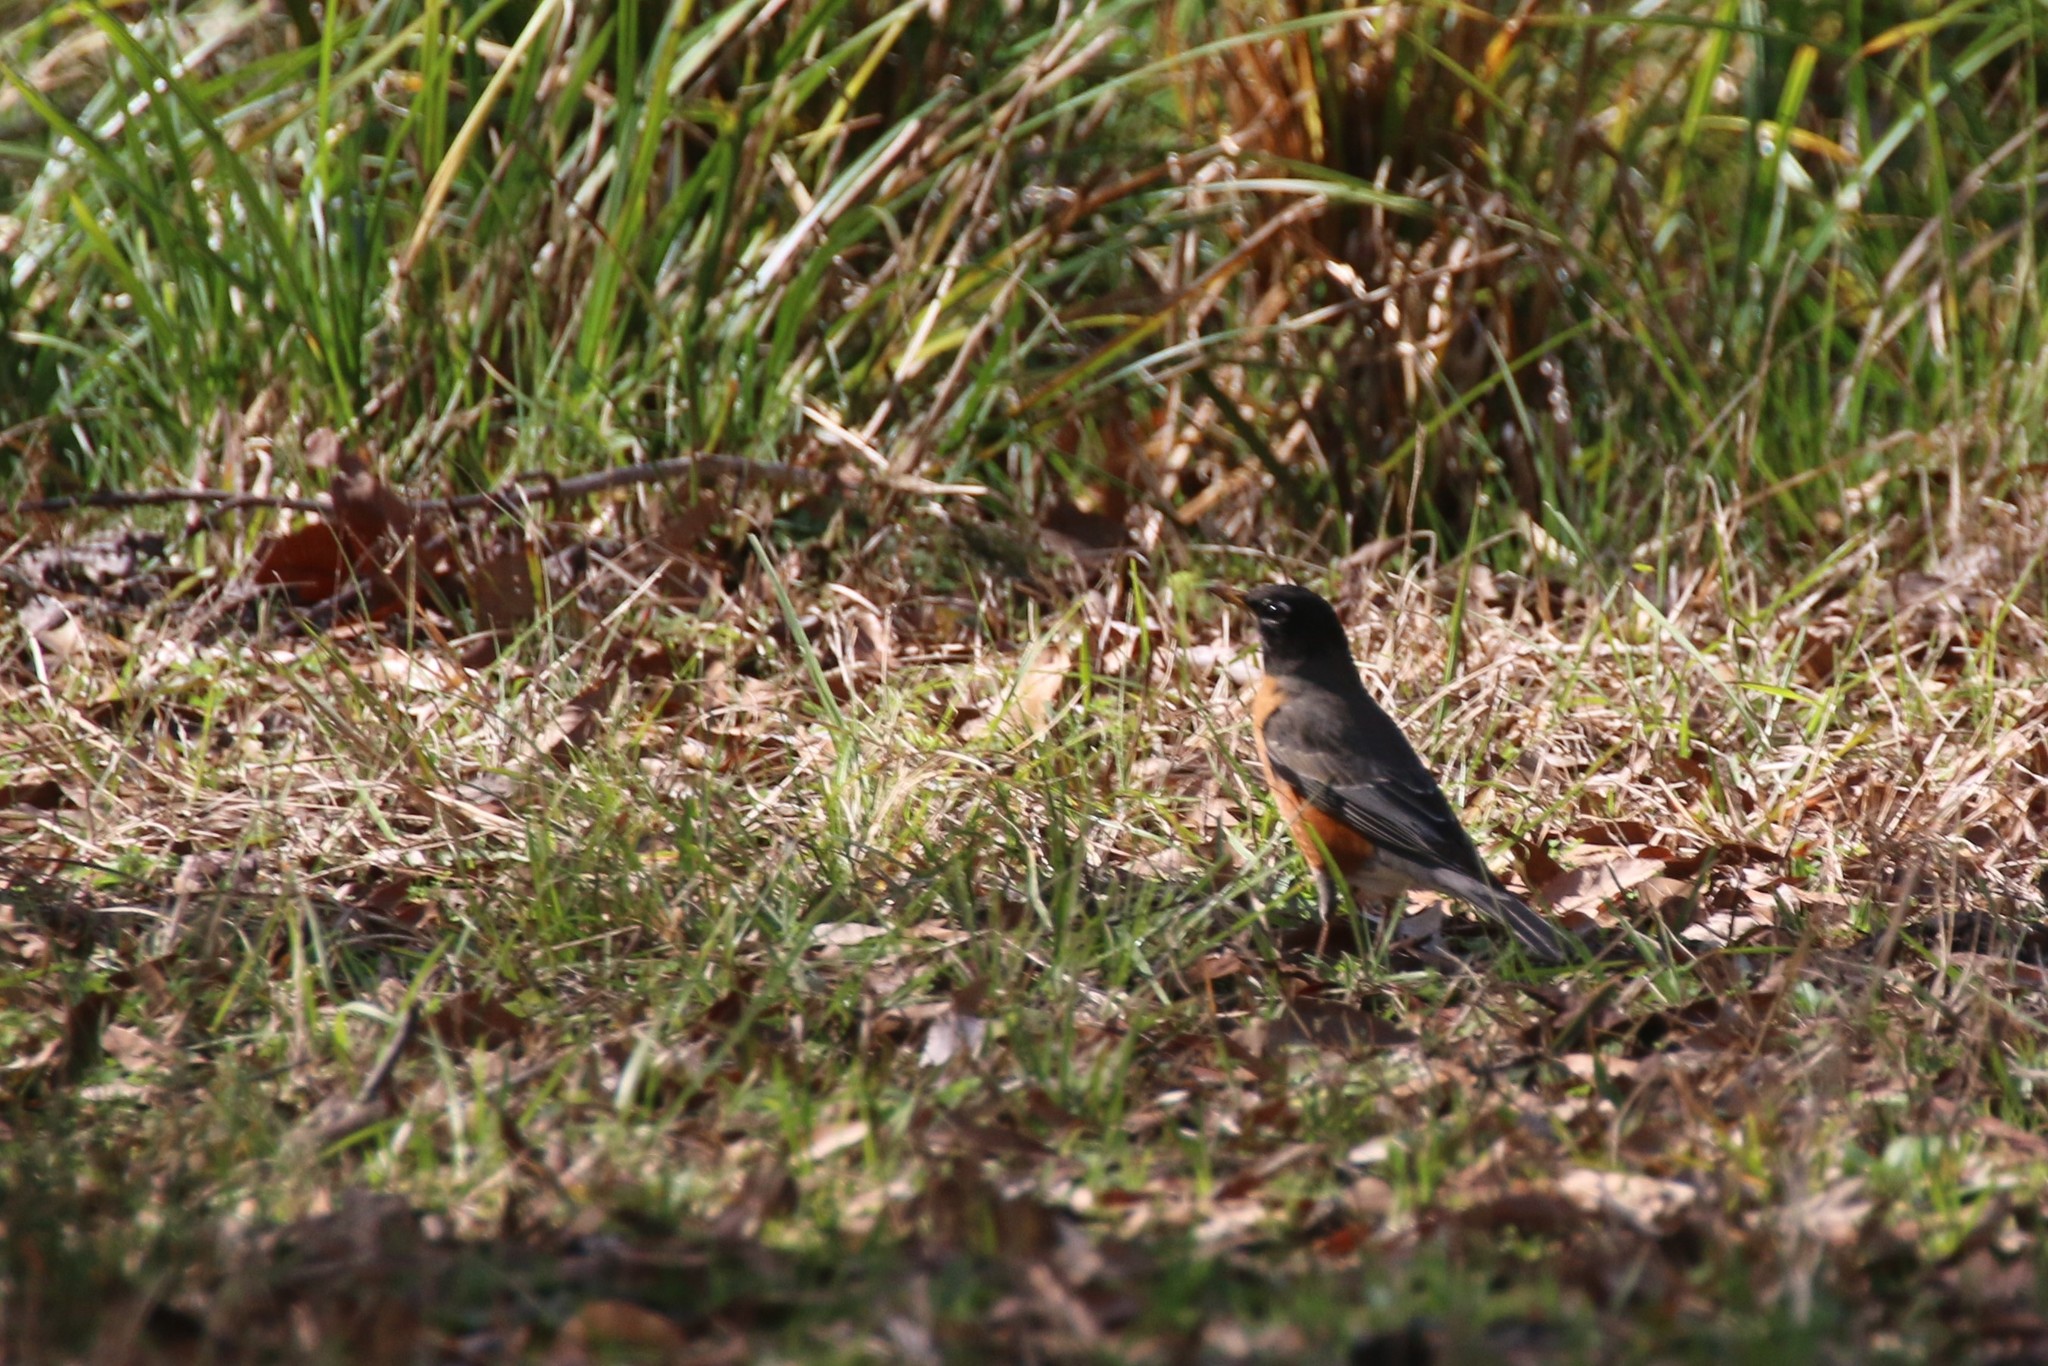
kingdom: Animalia
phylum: Chordata
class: Aves
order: Passeriformes
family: Turdidae
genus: Turdus
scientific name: Turdus migratorius
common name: American robin
